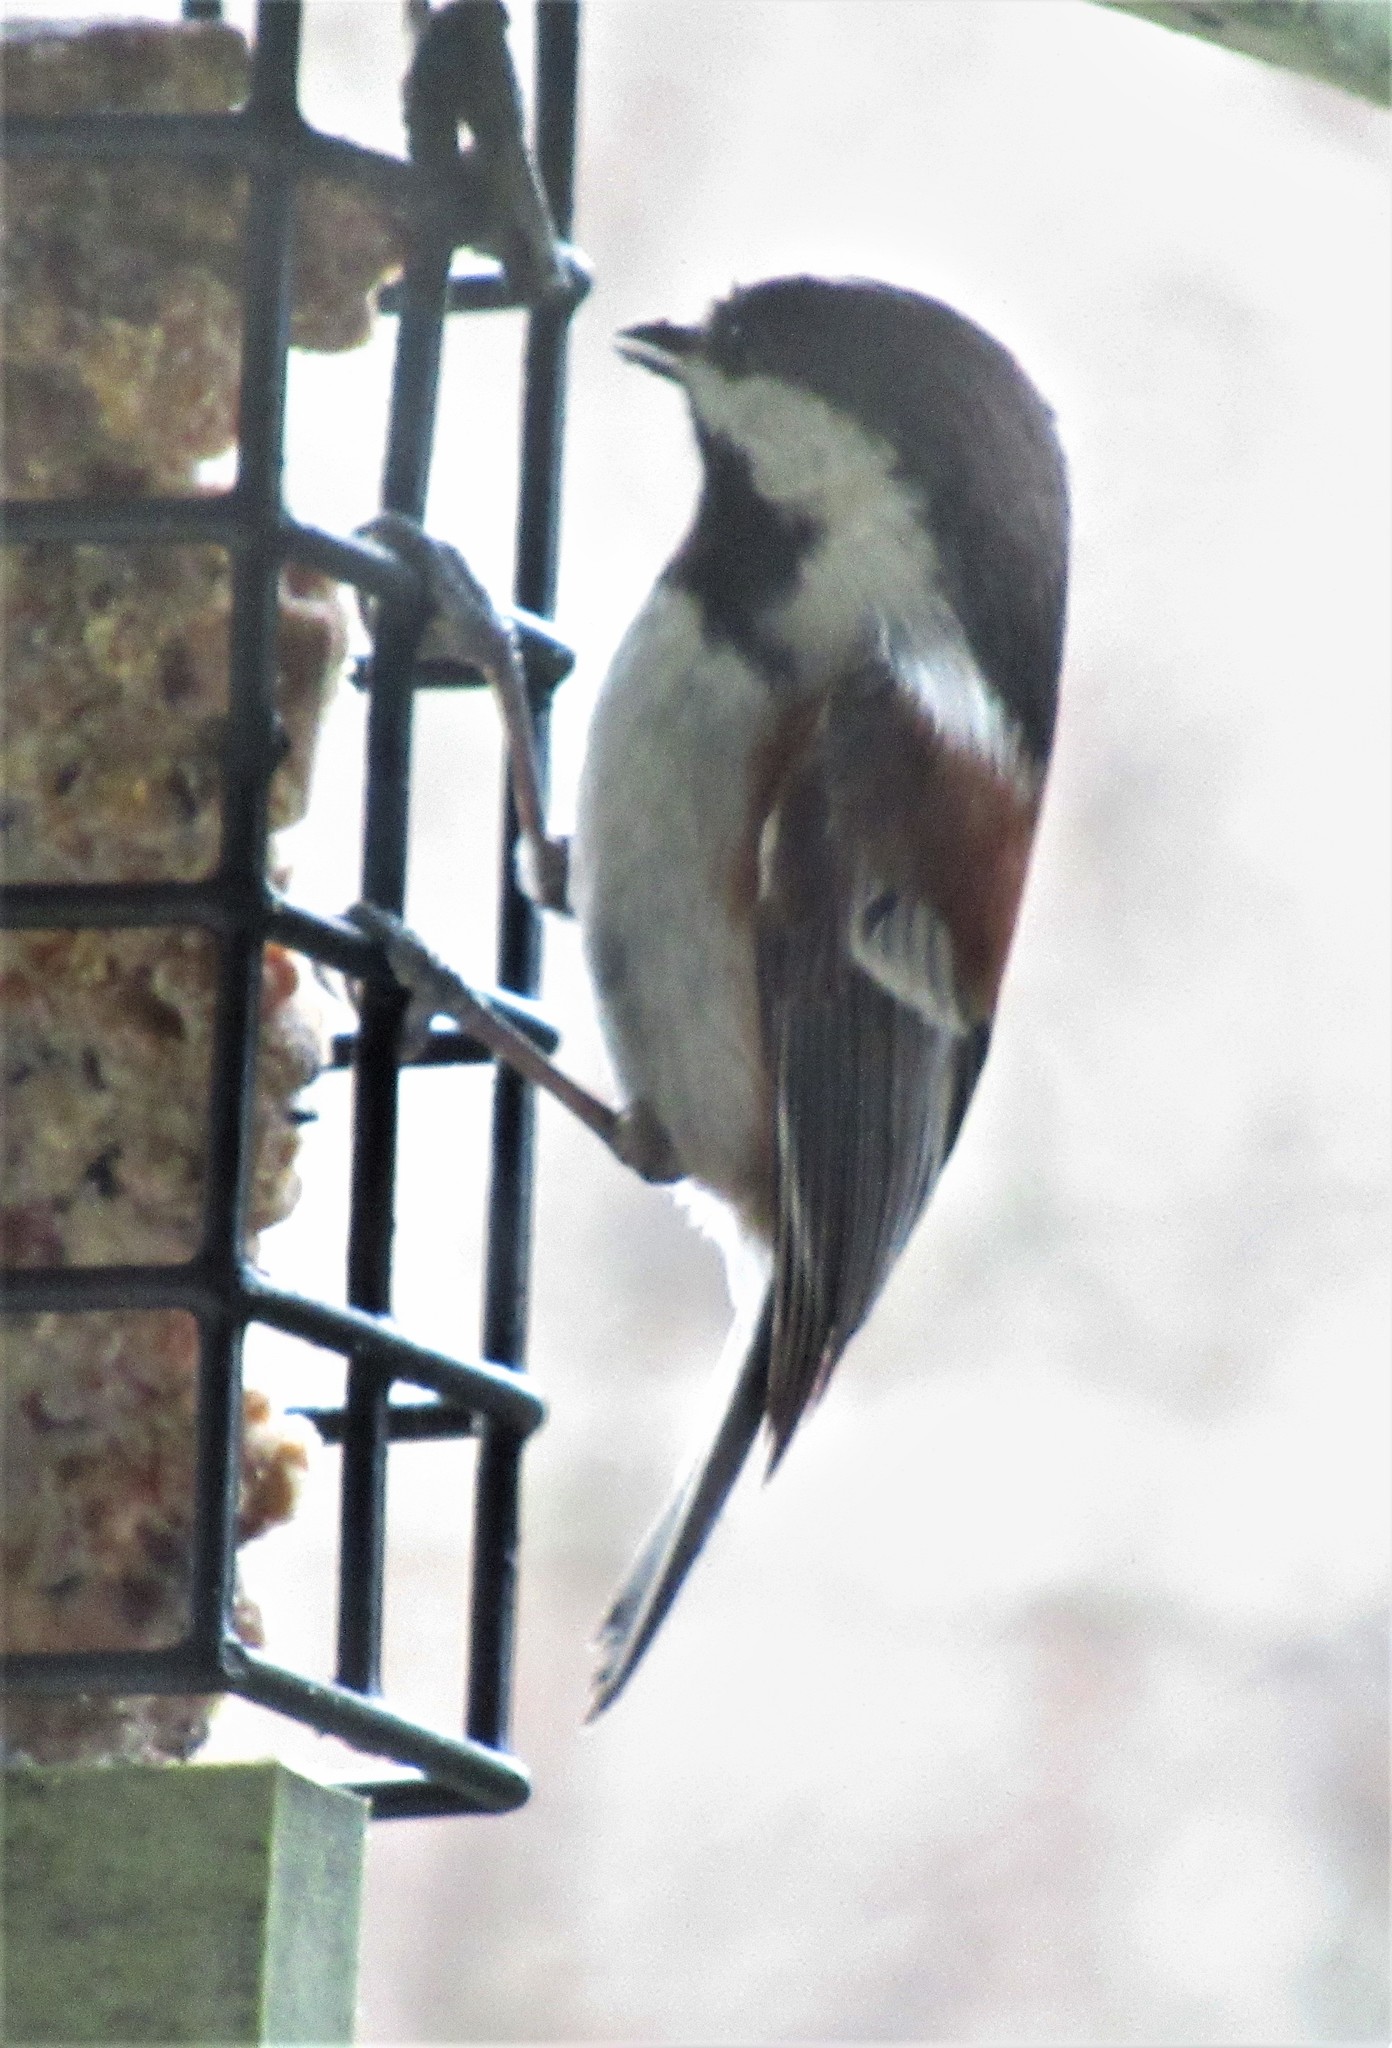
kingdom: Animalia
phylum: Chordata
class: Aves
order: Passeriformes
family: Paridae
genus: Poecile
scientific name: Poecile rufescens
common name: Chestnut-backed chickadee
